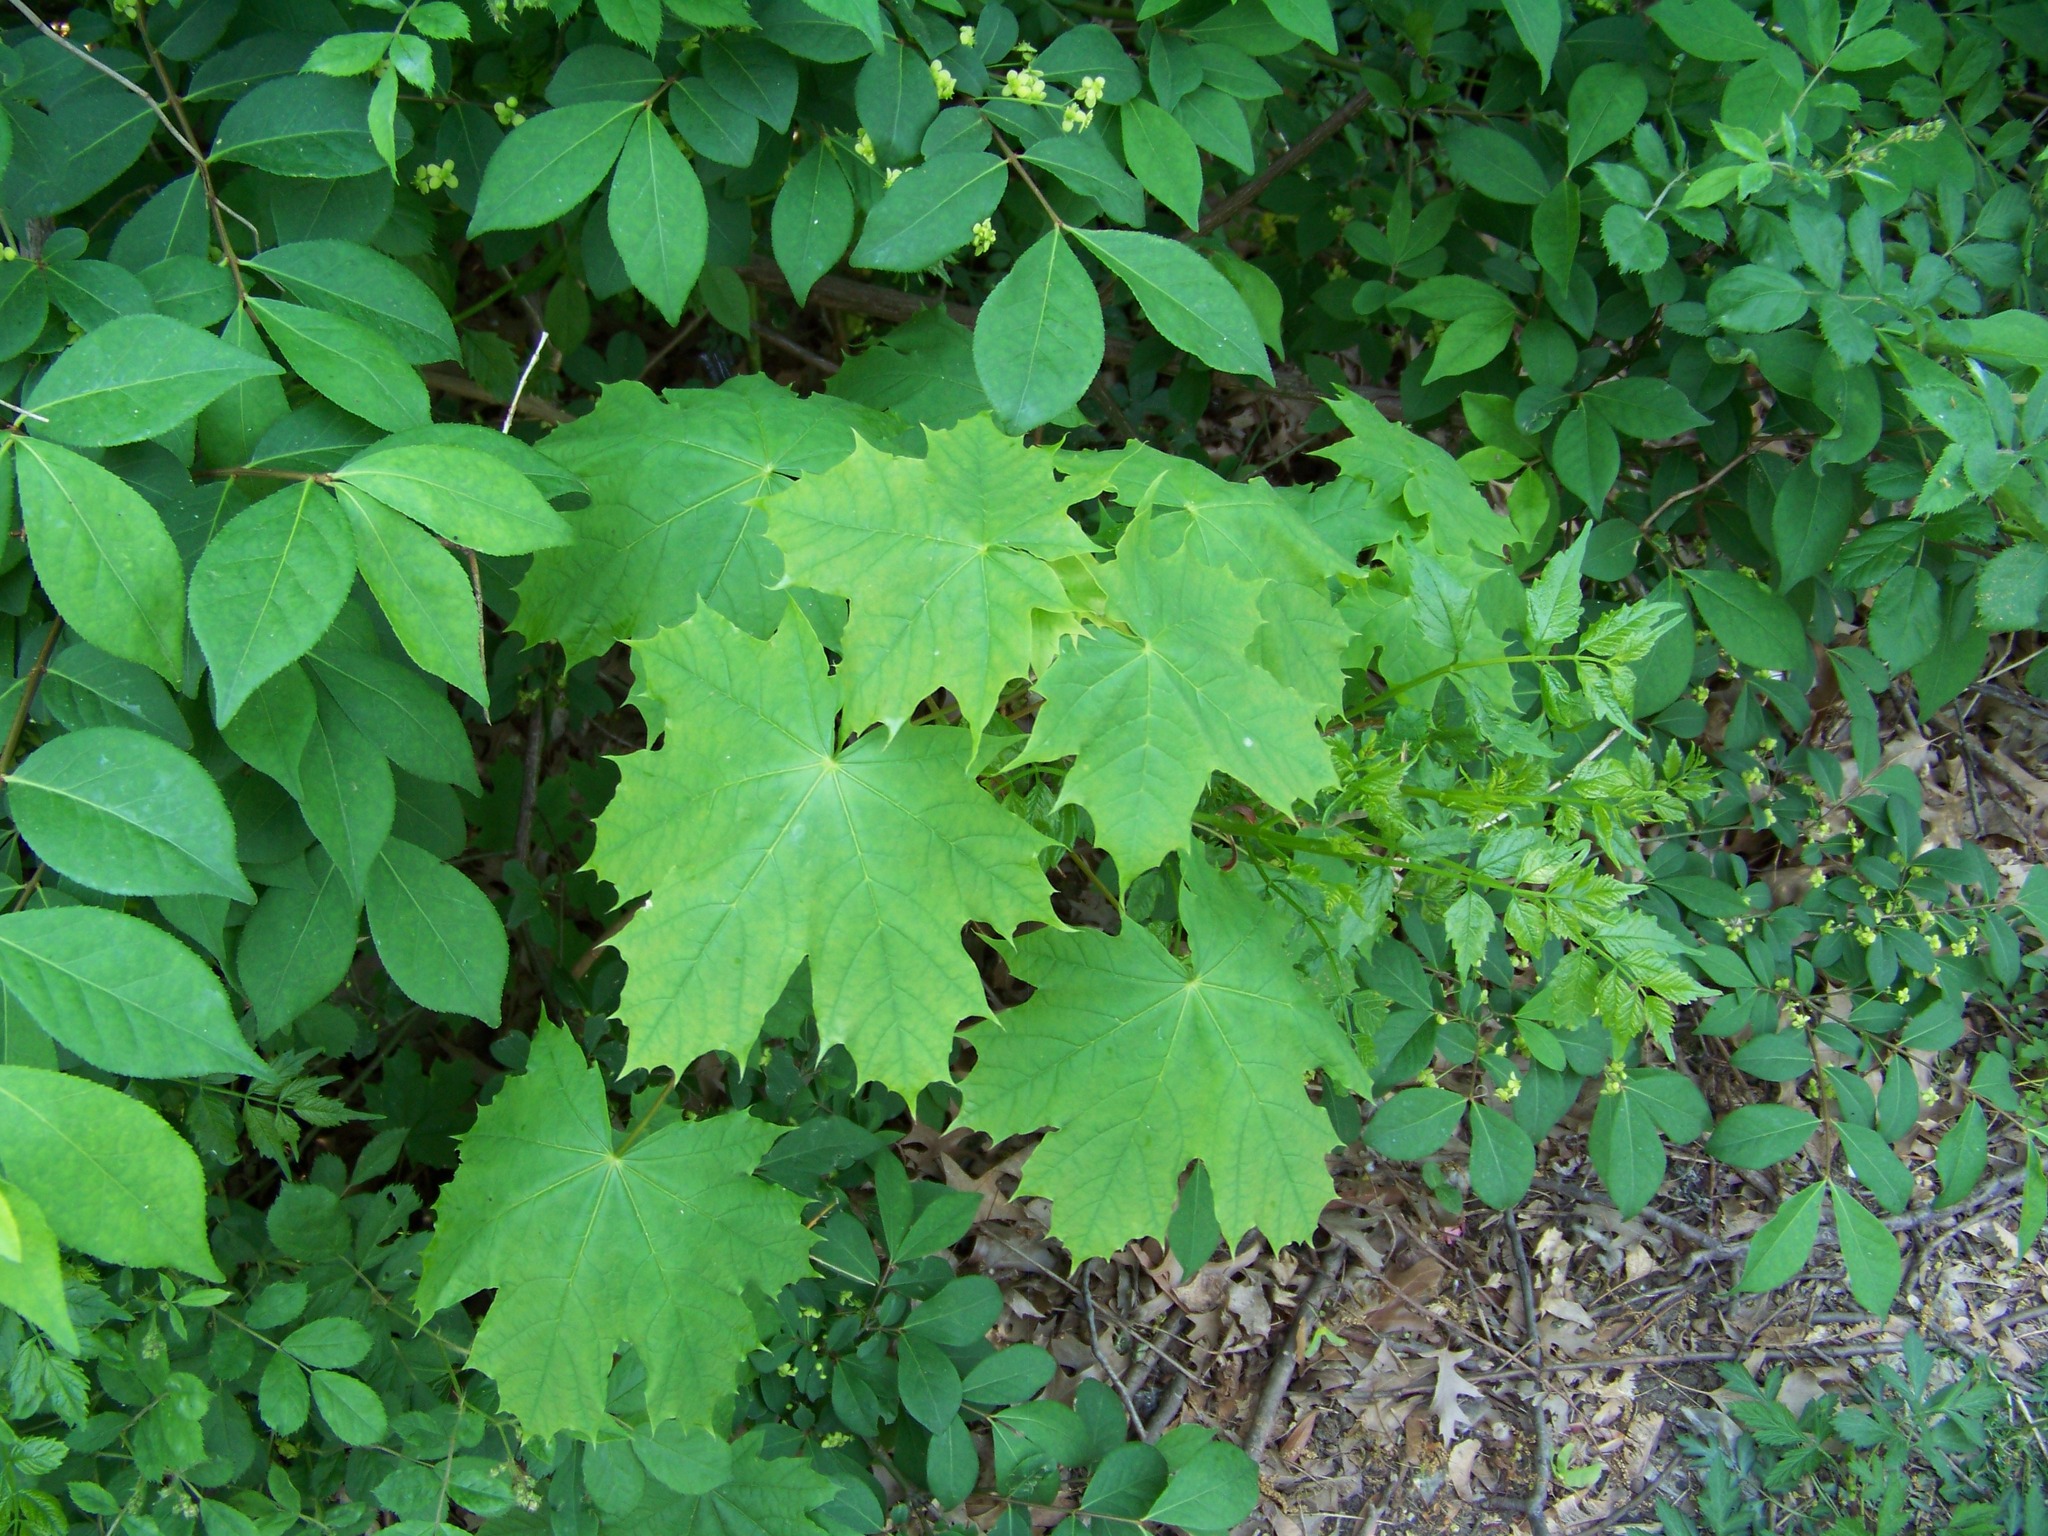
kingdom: Plantae
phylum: Tracheophyta
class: Magnoliopsida
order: Sapindales
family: Sapindaceae
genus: Acer
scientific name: Acer platanoides
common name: Norway maple
